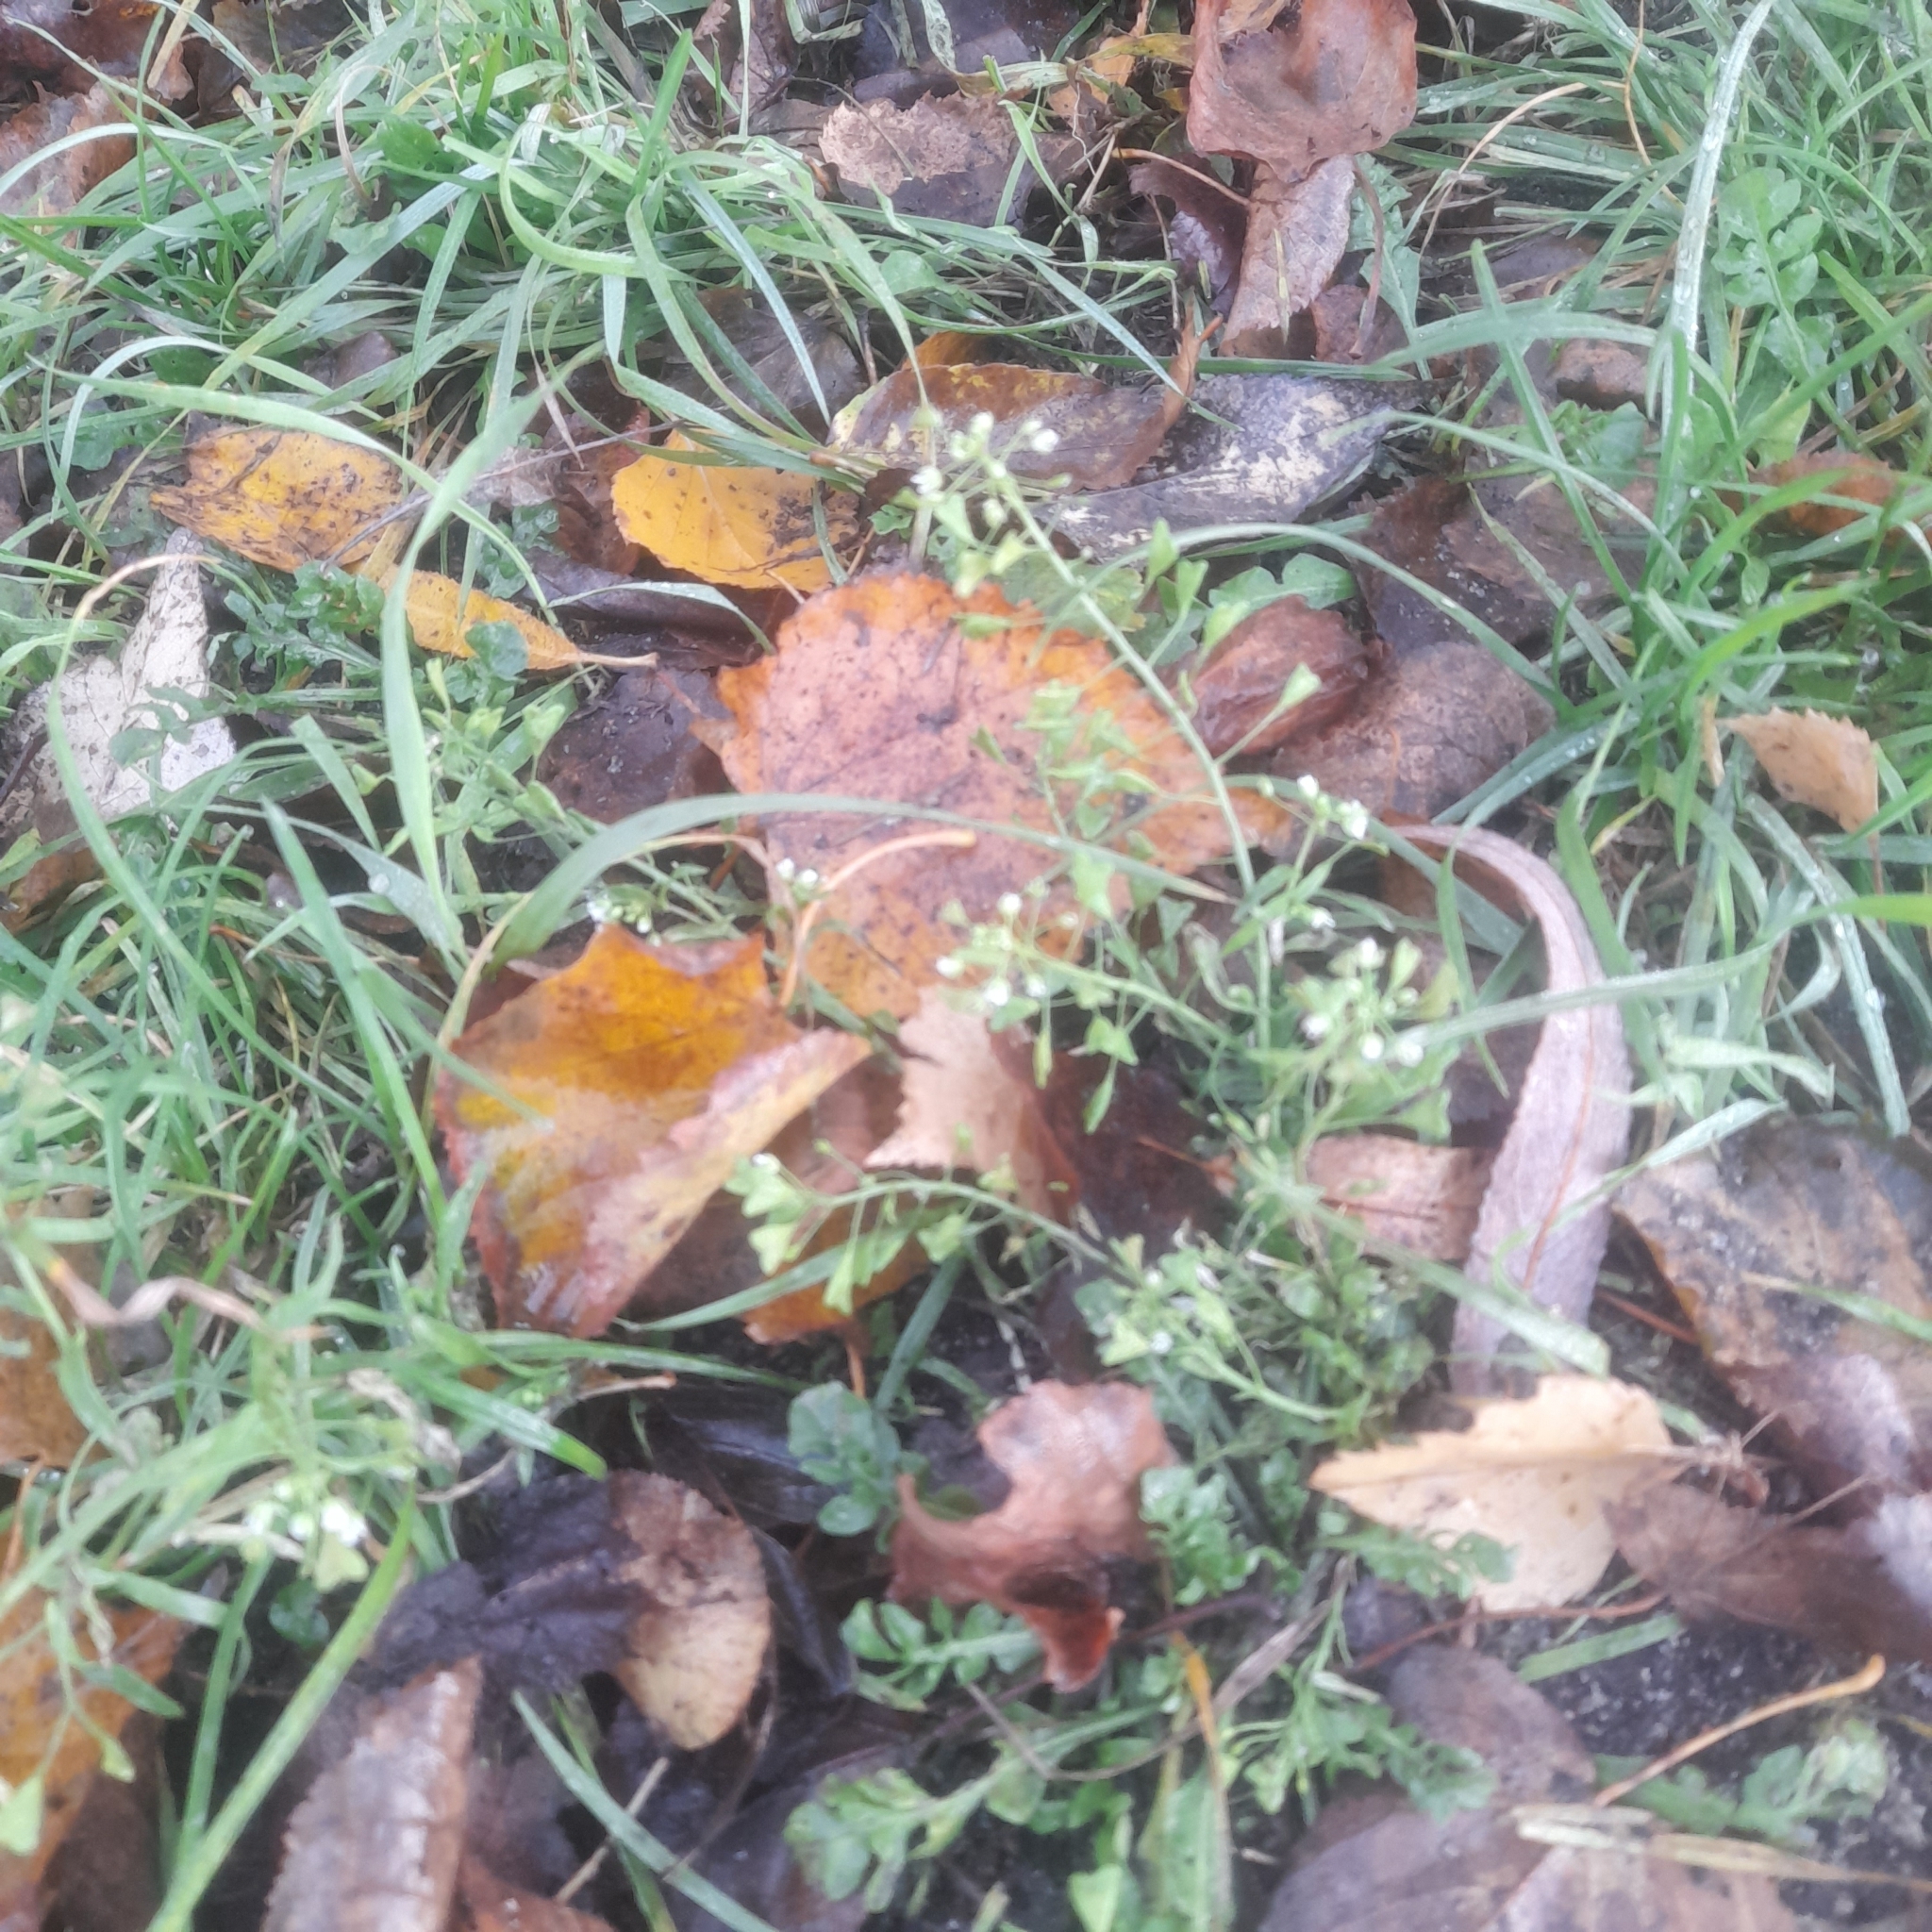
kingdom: Plantae
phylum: Tracheophyta
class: Magnoliopsida
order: Brassicales
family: Brassicaceae
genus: Capsella
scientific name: Capsella bursa-pastoris
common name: Shepherd's purse
